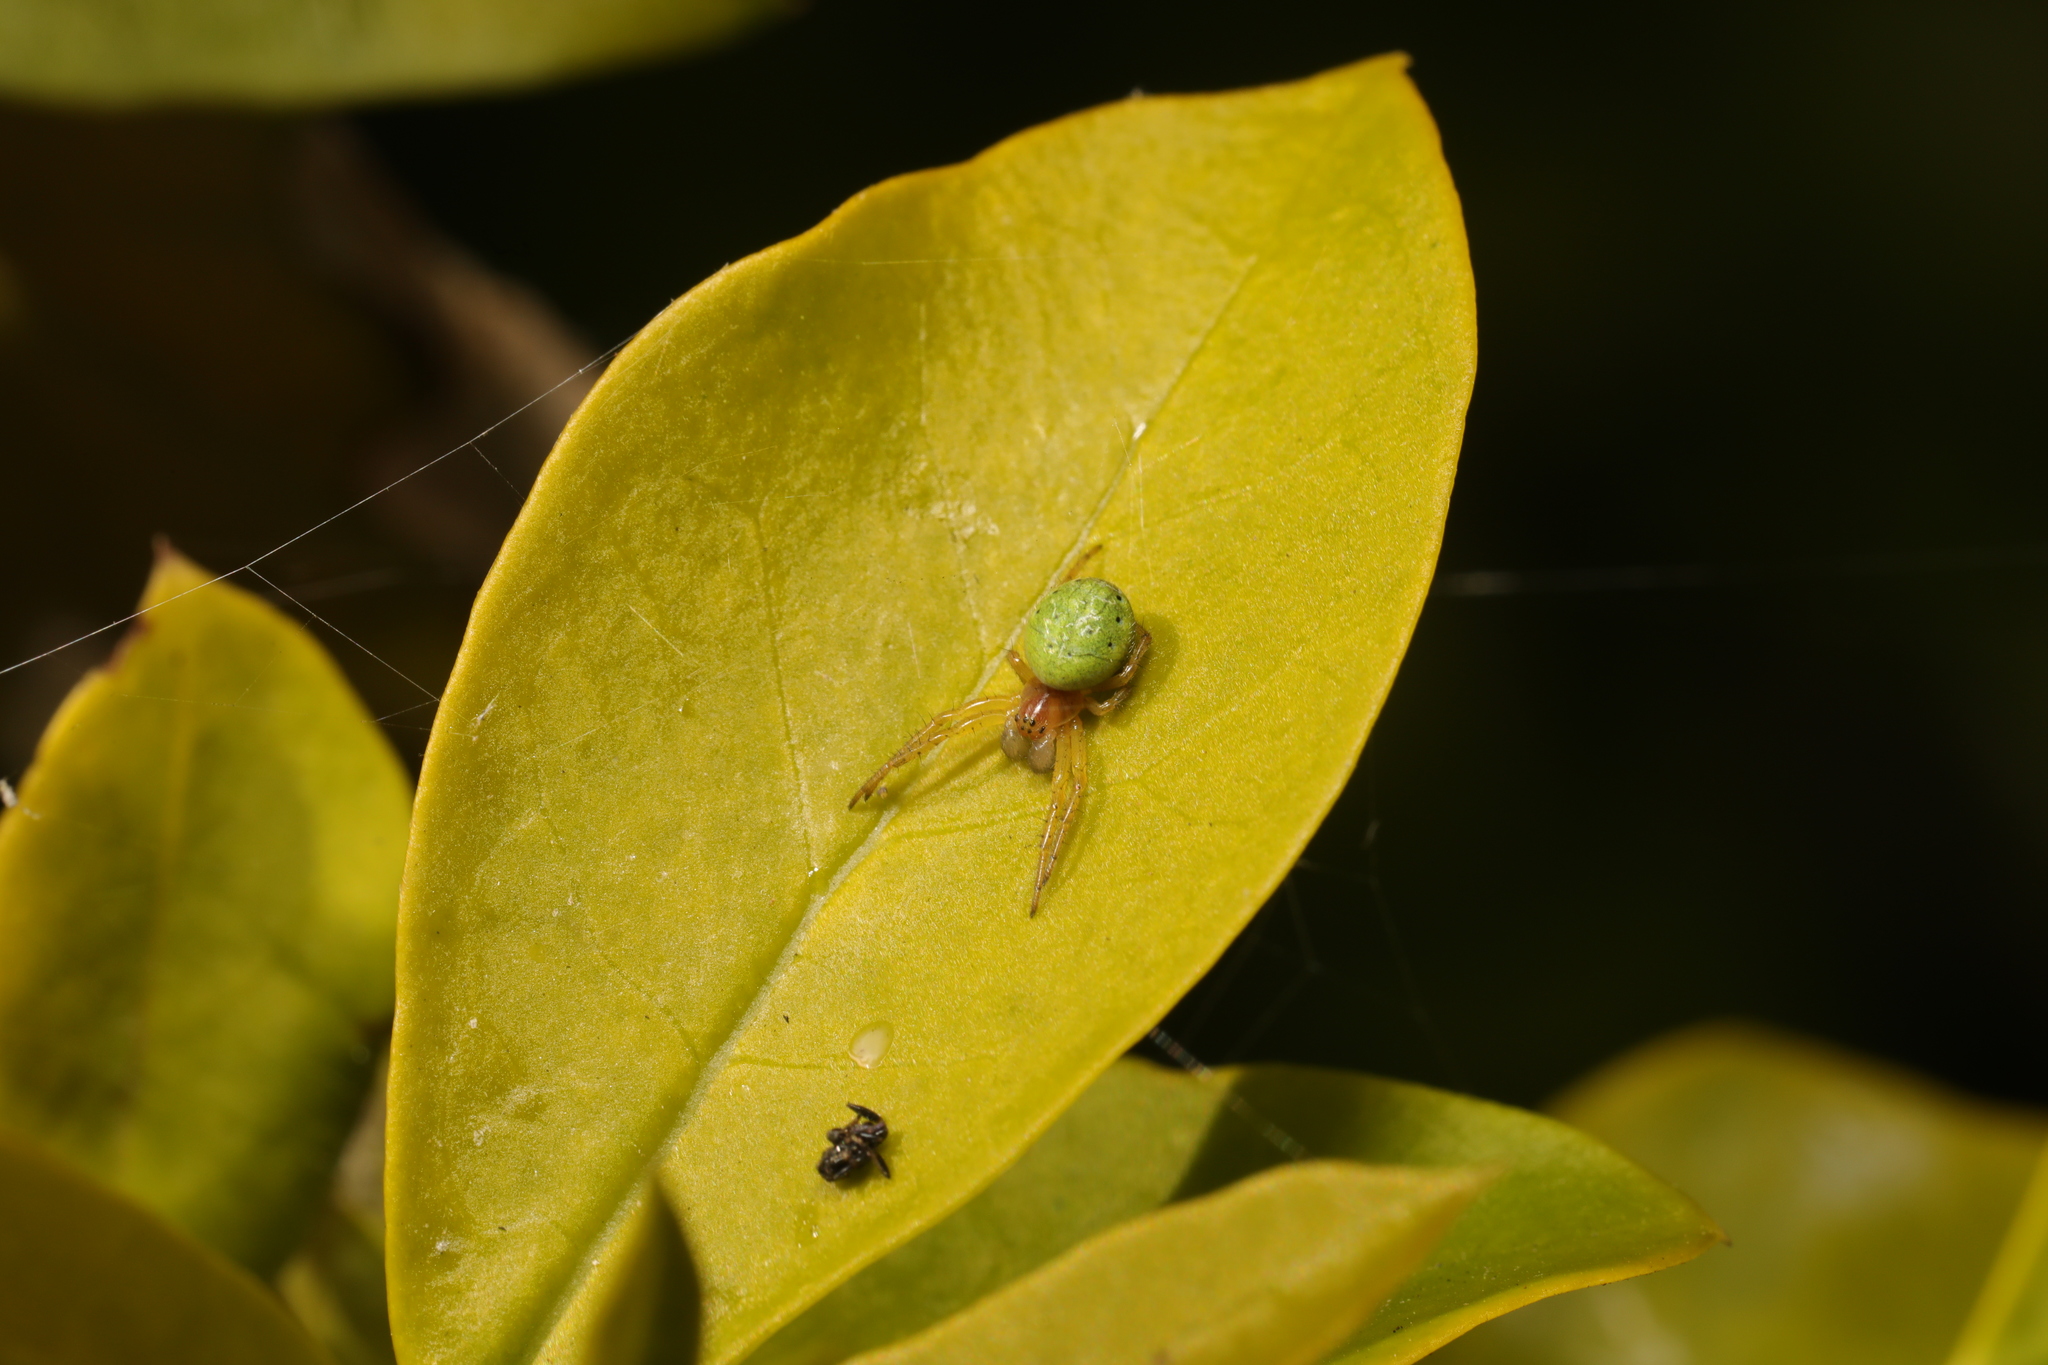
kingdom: Animalia
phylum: Arthropoda
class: Arachnida
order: Araneae
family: Araneidae
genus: Araniella
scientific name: Araniella
